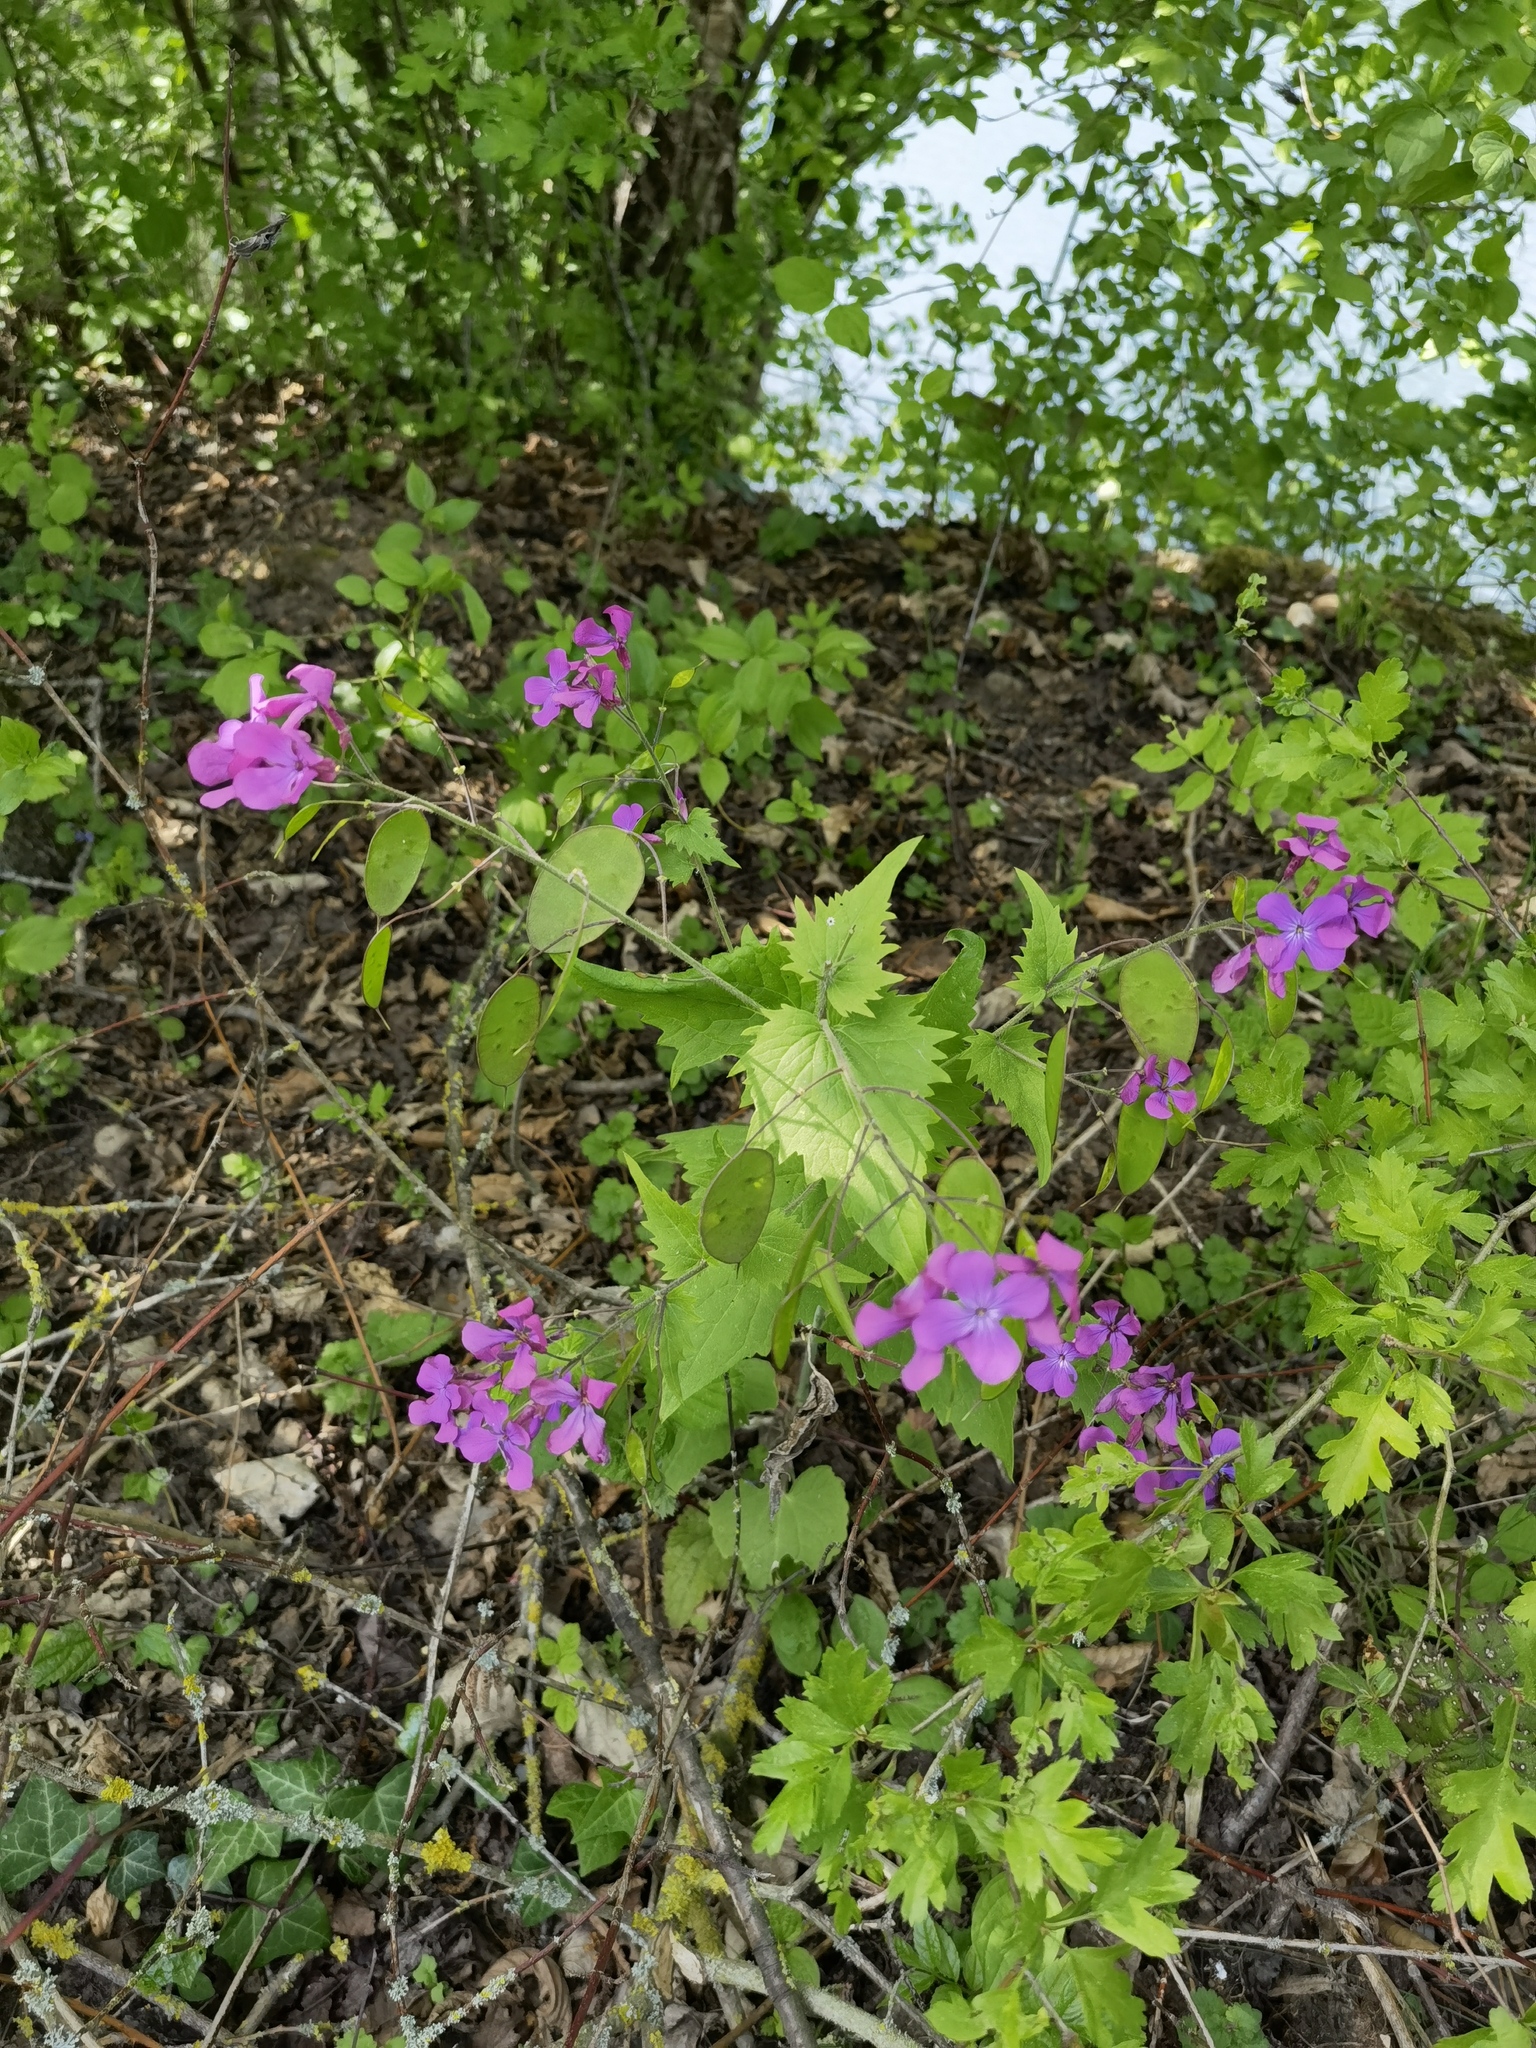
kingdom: Plantae
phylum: Tracheophyta
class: Magnoliopsida
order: Brassicales
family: Brassicaceae
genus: Lunaria
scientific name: Lunaria annua
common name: Honesty
